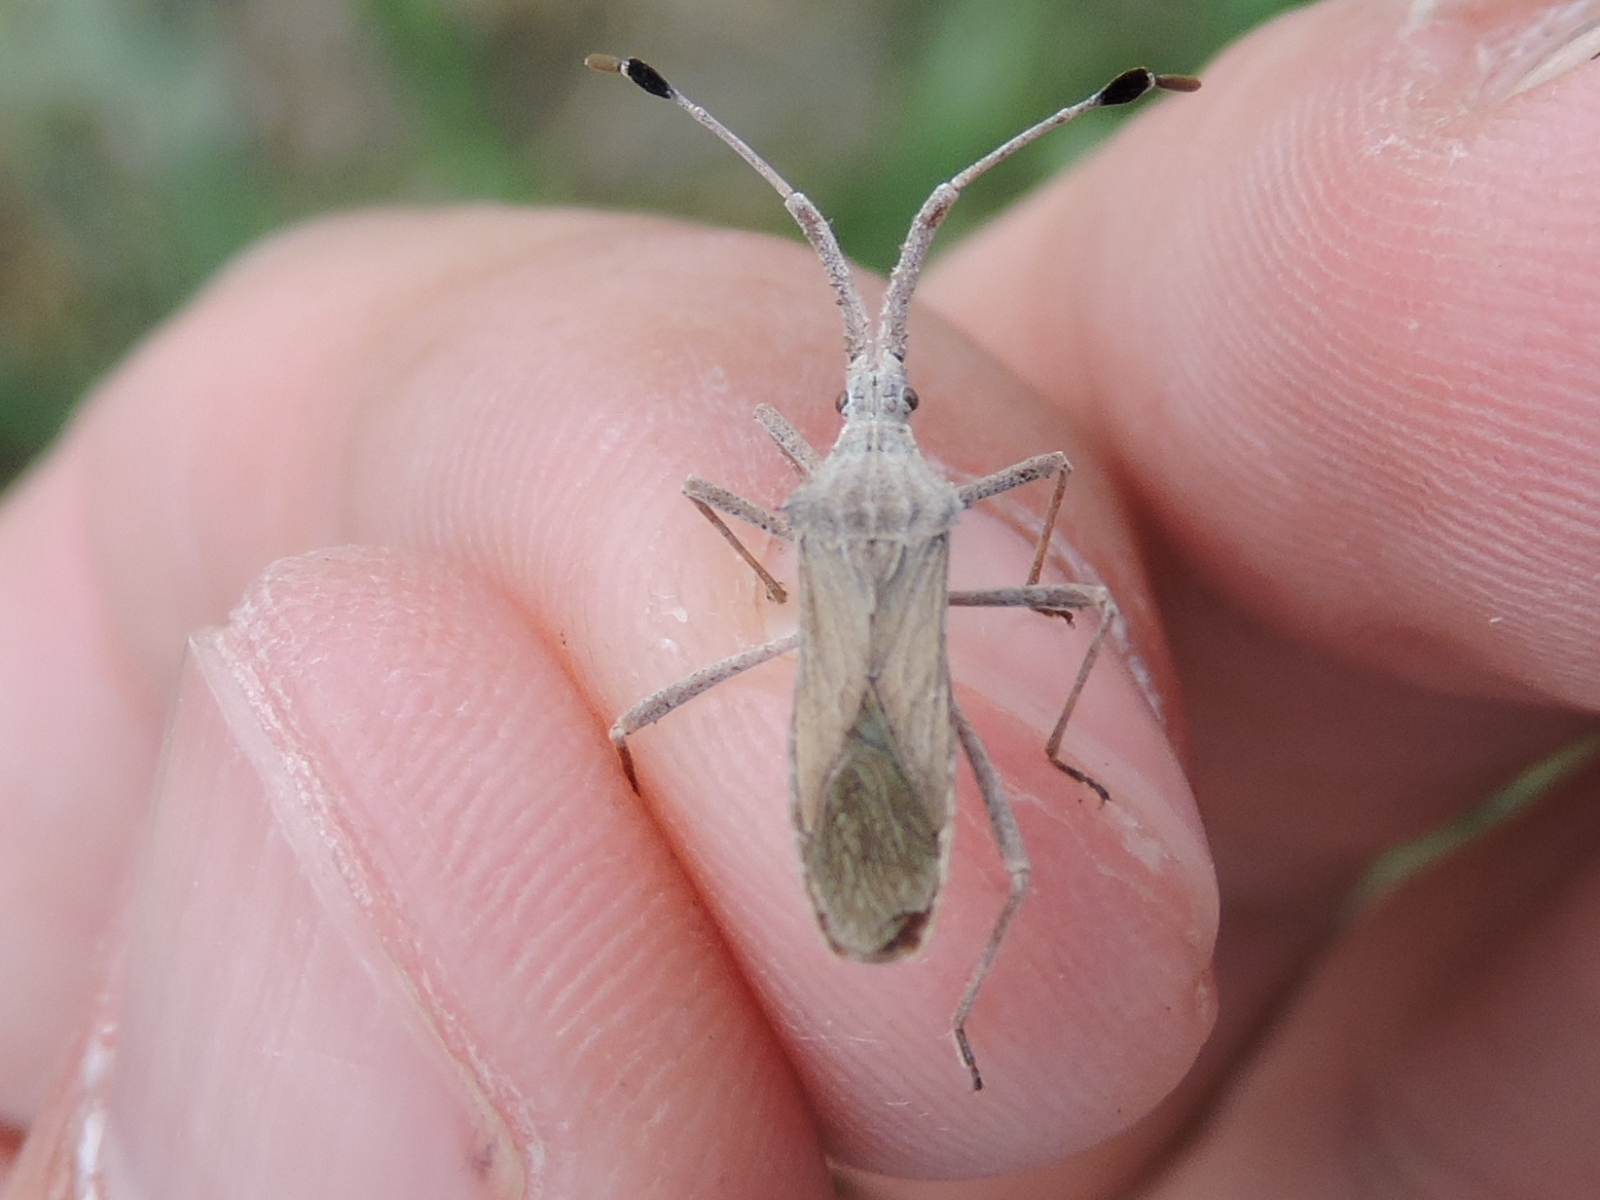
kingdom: Animalia
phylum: Arthropoda
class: Insecta
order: Hemiptera
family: Coreidae
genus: Chariesterus
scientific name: Chariesterus antennator
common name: Flat horned coreid
